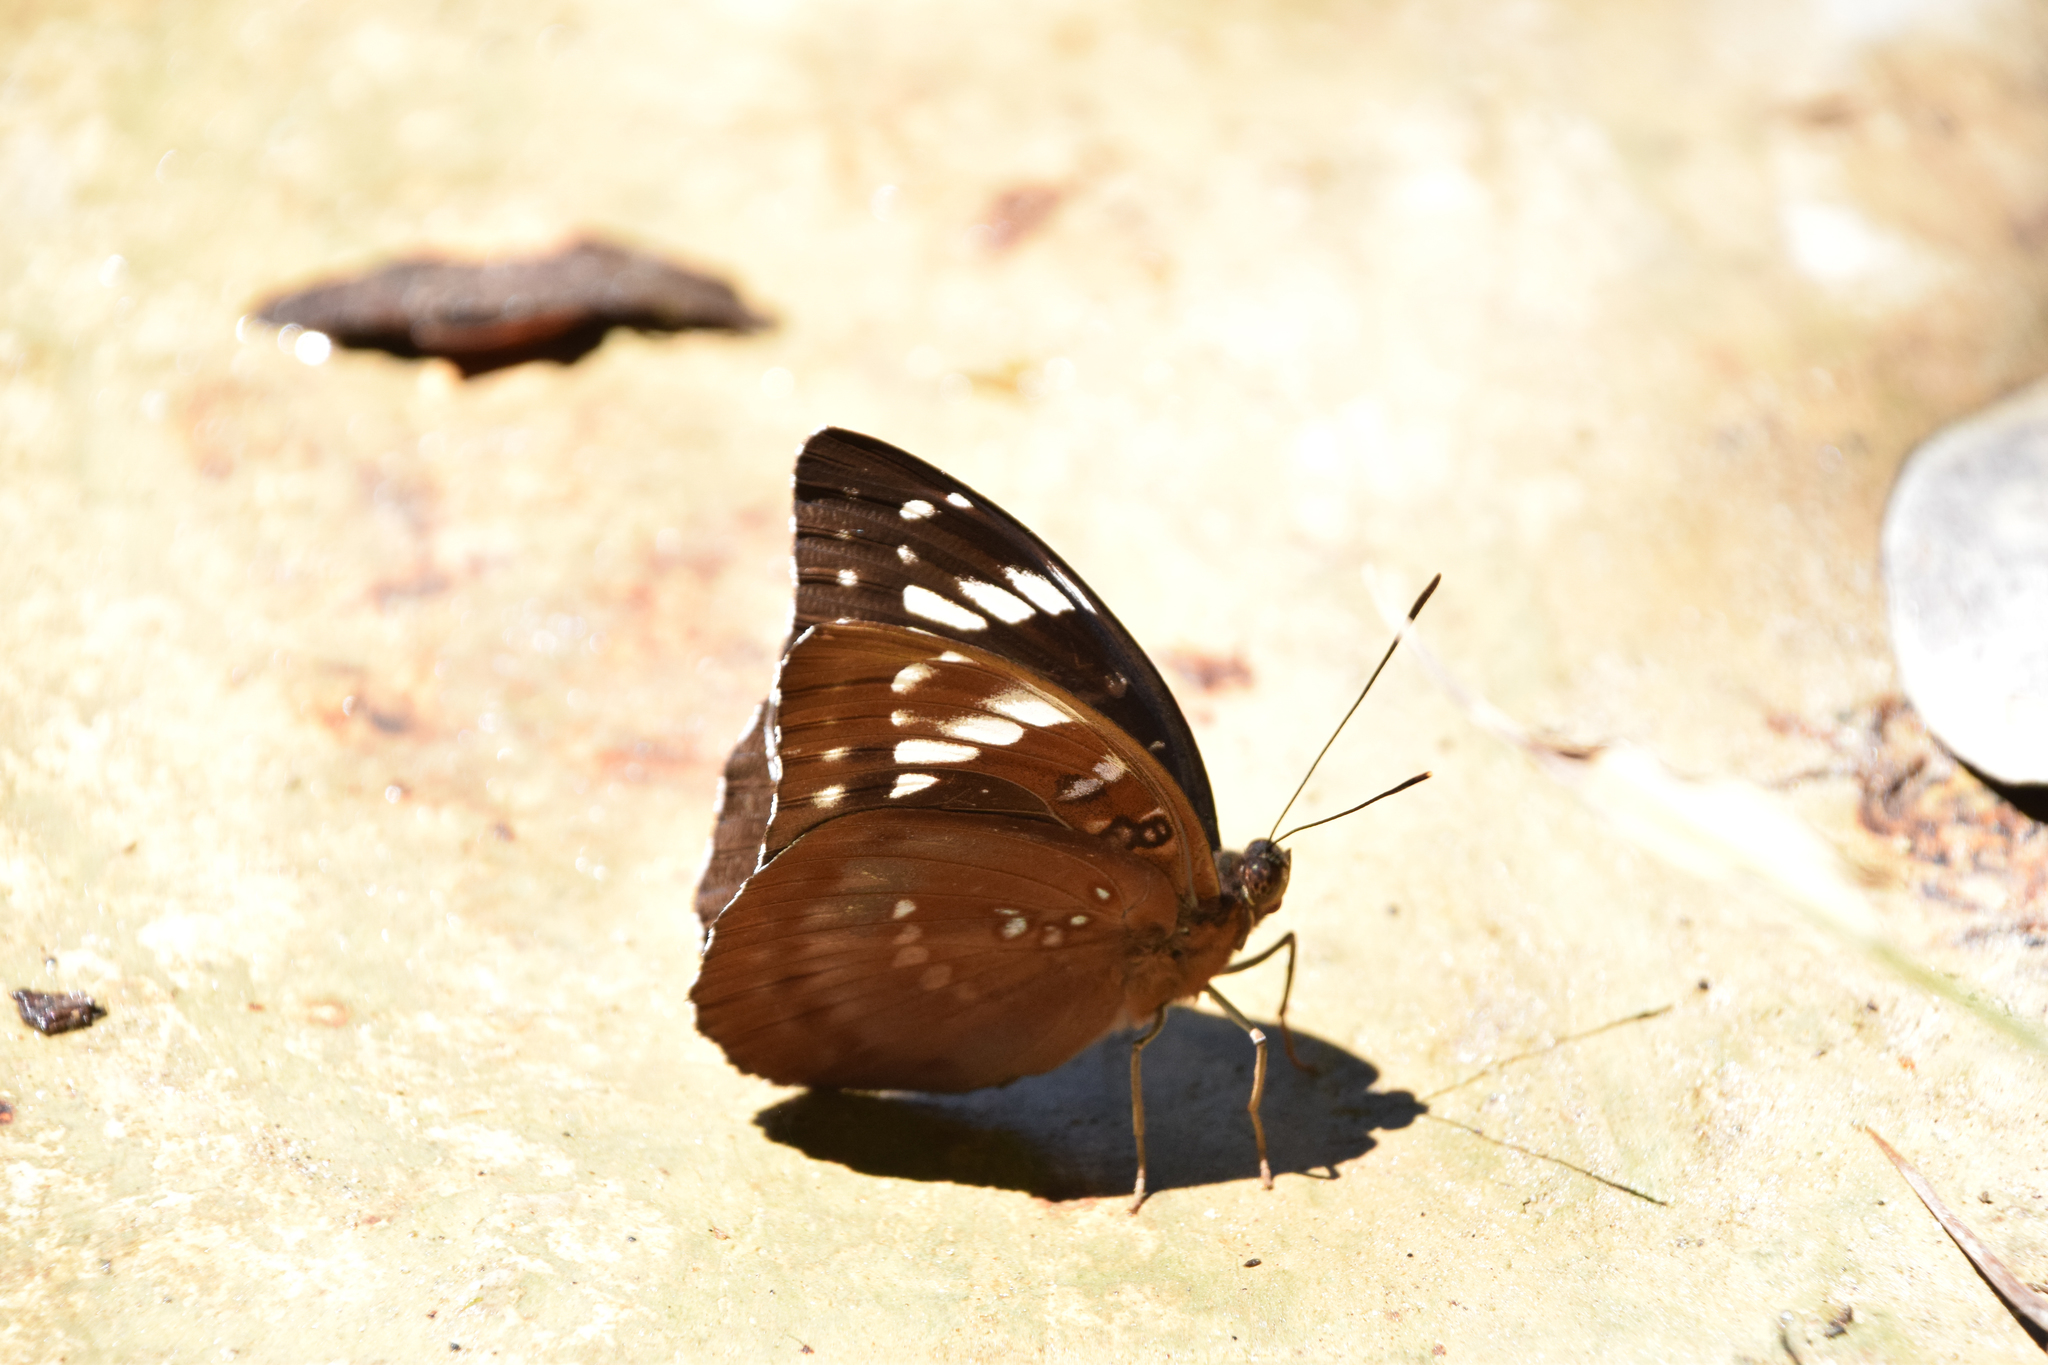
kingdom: Animalia
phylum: Arthropoda
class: Insecta
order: Lepidoptera
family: Nymphalidae
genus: Lexias
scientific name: Lexias aeetes
